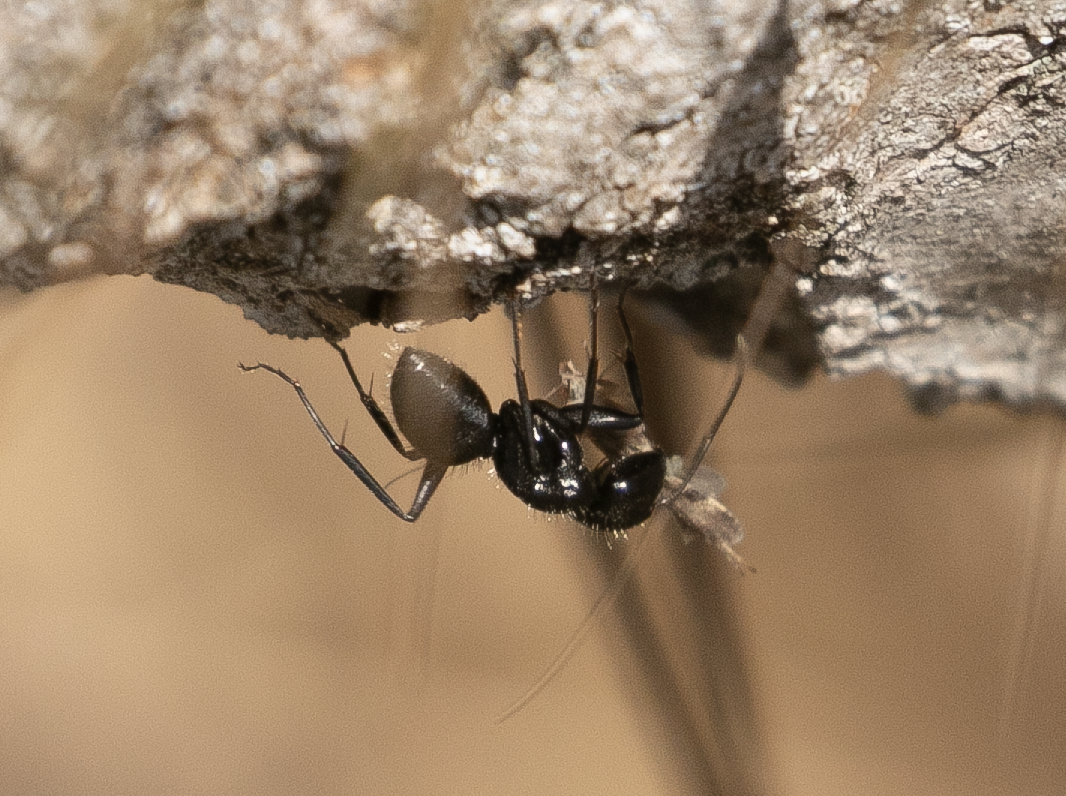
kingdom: Animalia
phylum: Arthropoda
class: Insecta
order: Hymenoptera
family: Formicidae
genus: Camponotus
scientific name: Camponotus vagus
